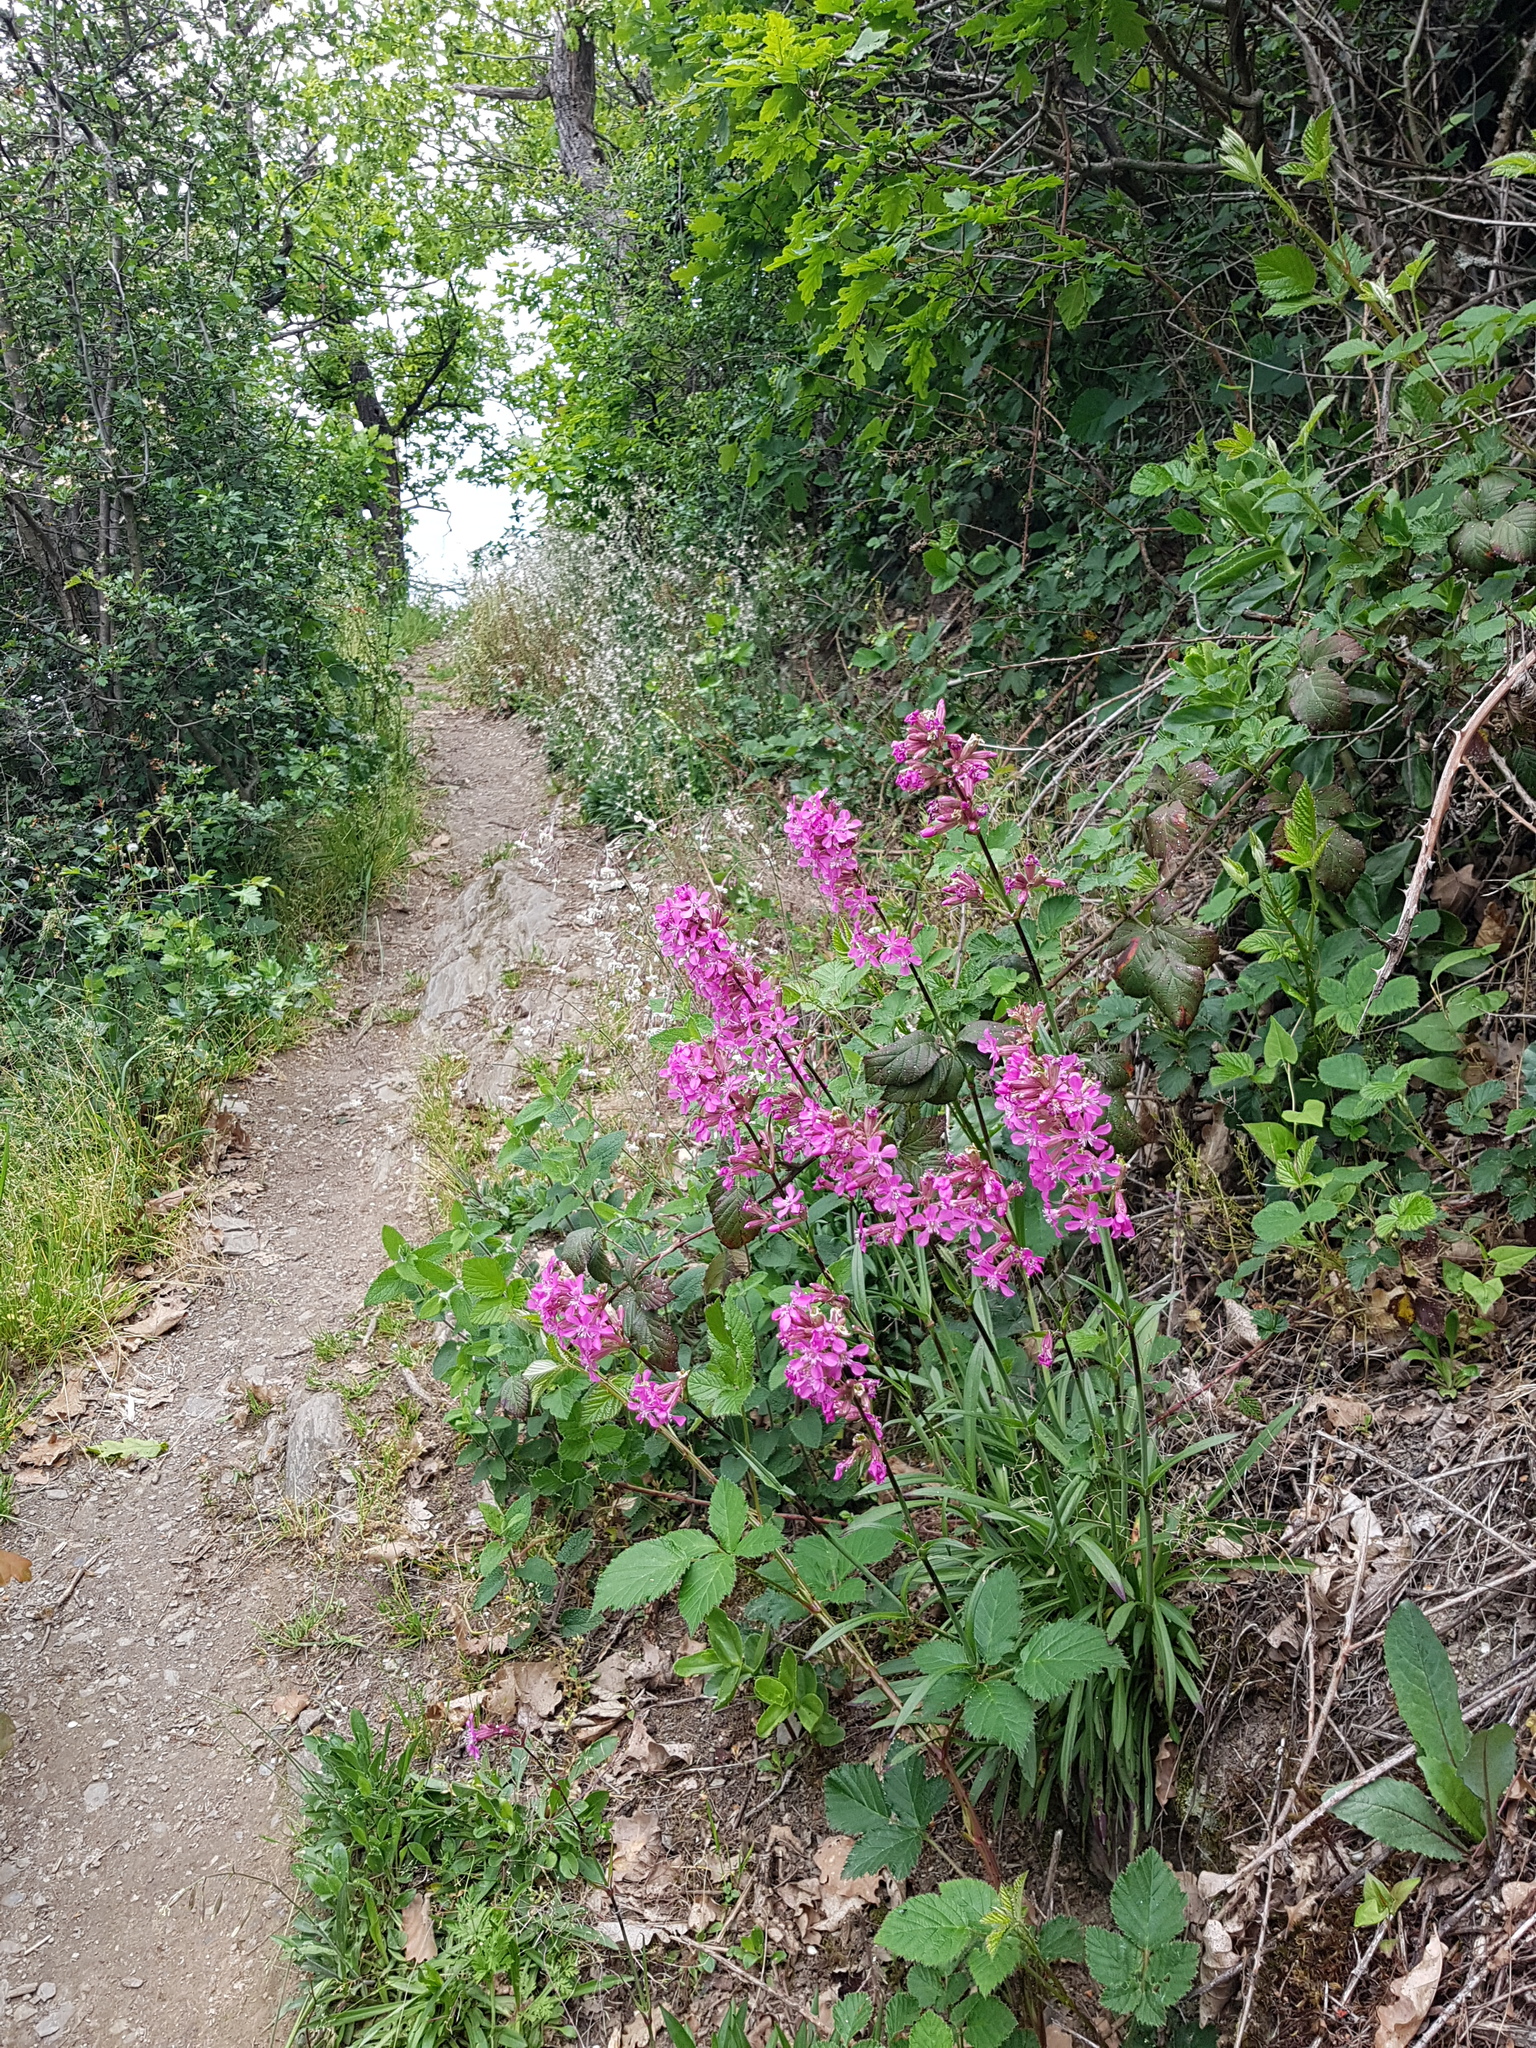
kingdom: Plantae
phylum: Tracheophyta
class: Magnoliopsida
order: Caryophyllales
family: Caryophyllaceae
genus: Viscaria
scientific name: Viscaria vulgaris
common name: Clammy campion
